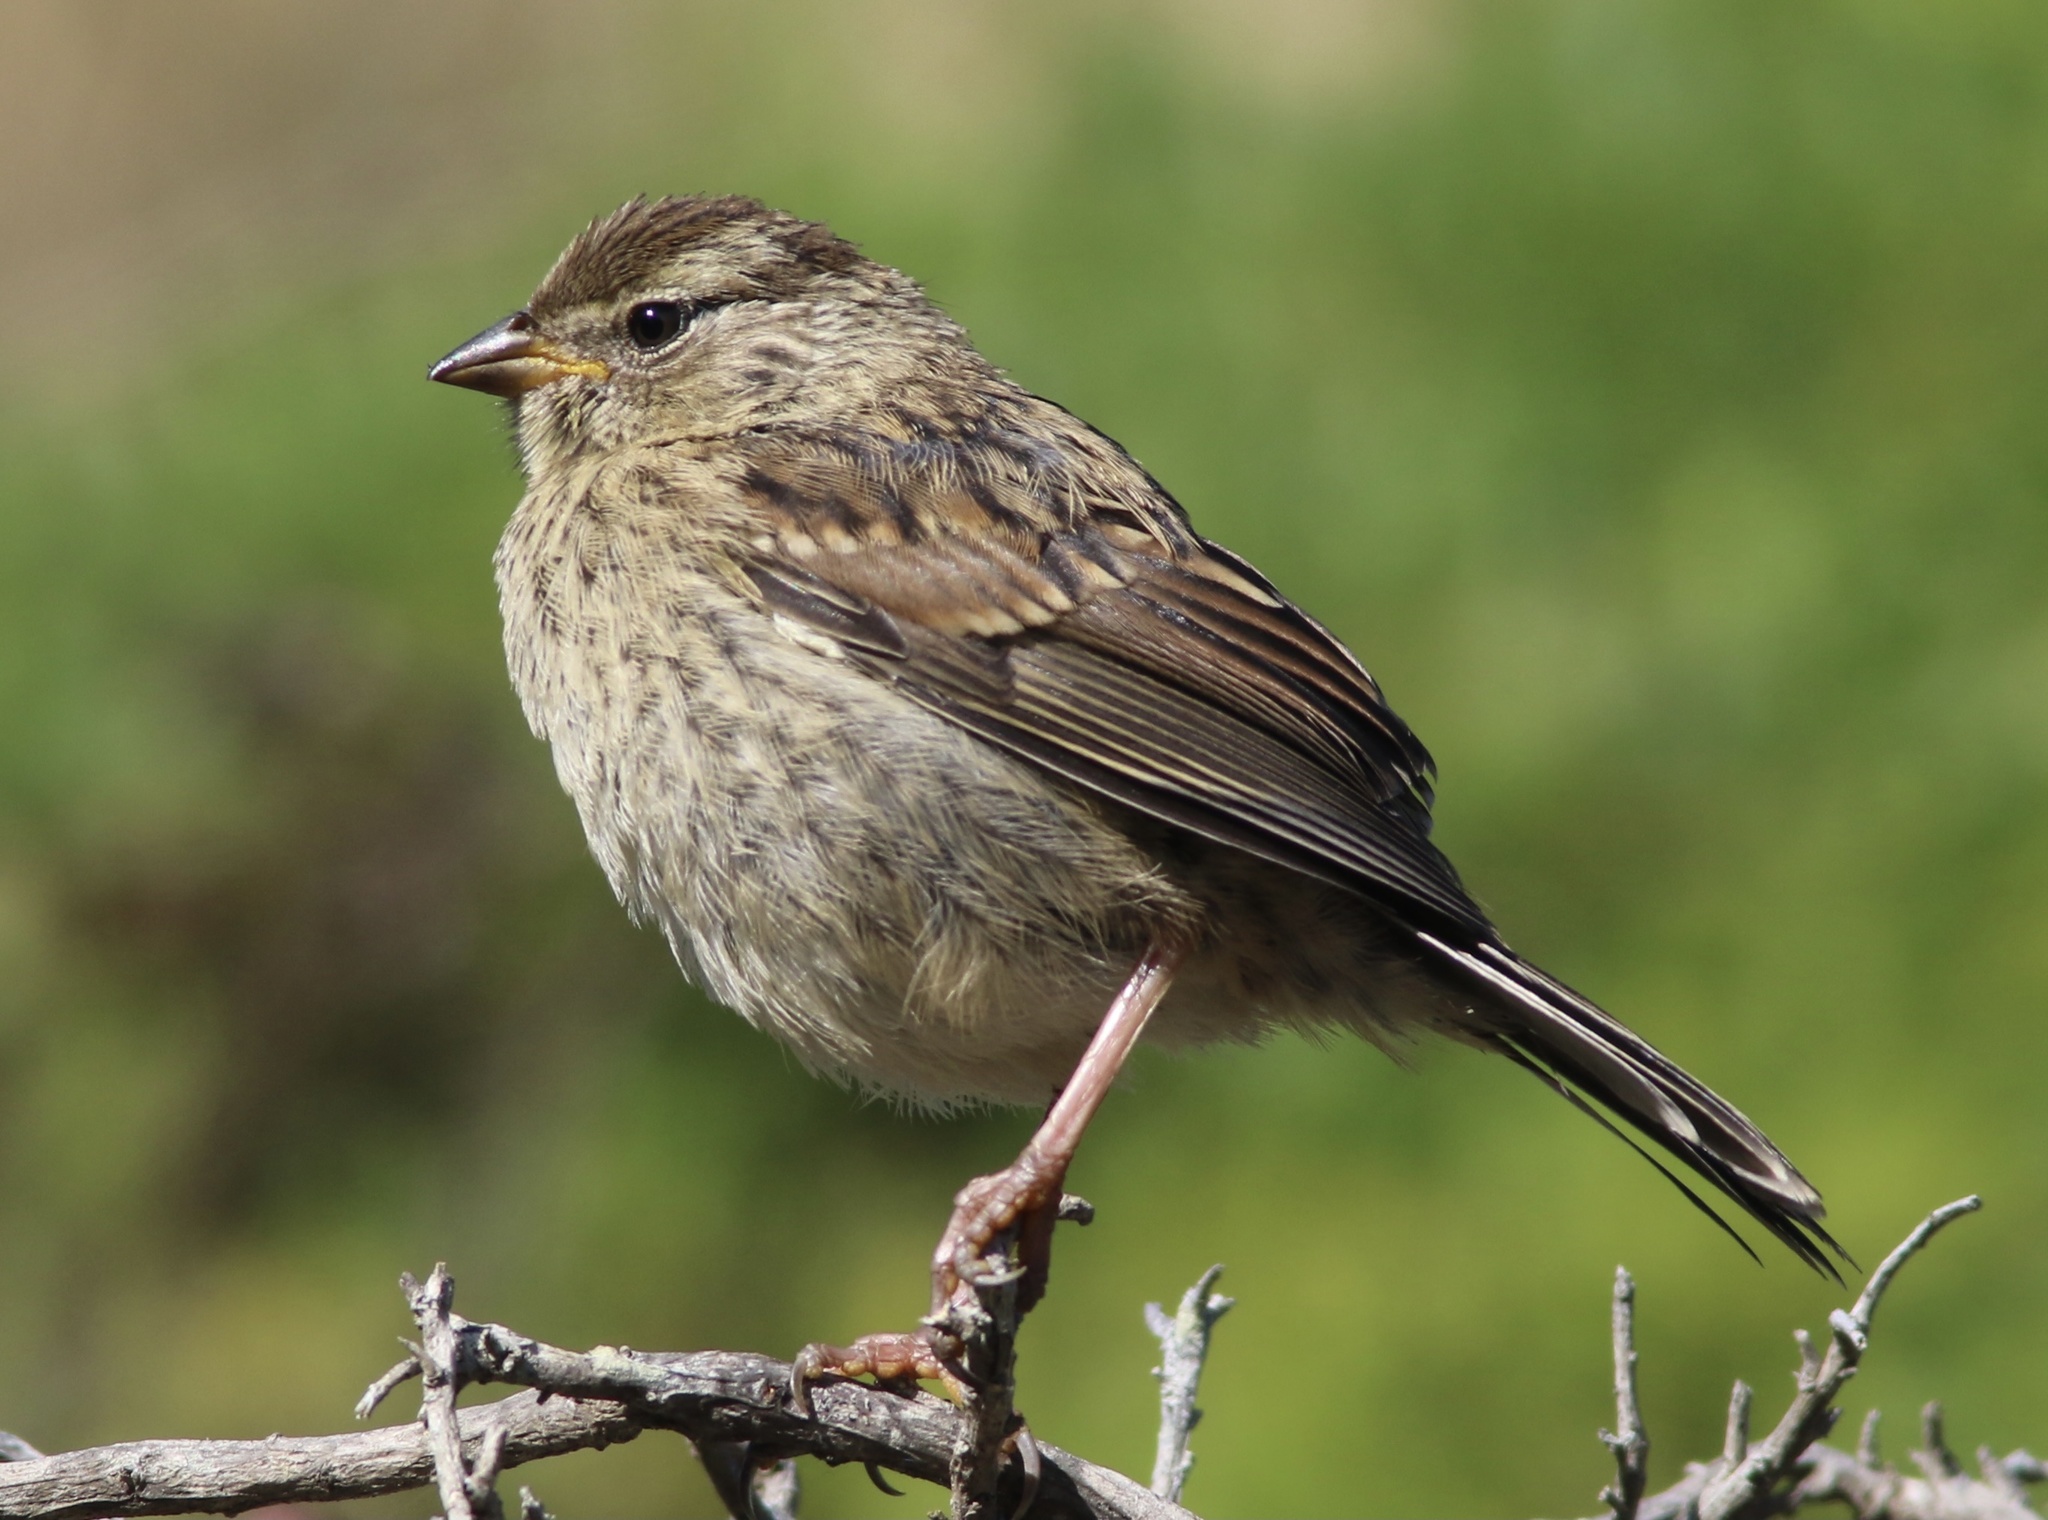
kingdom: Animalia
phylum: Chordata
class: Aves
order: Passeriformes
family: Passerellidae
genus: Zonotrichia
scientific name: Zonotrichia leucophrys
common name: White-crowned sparrow
